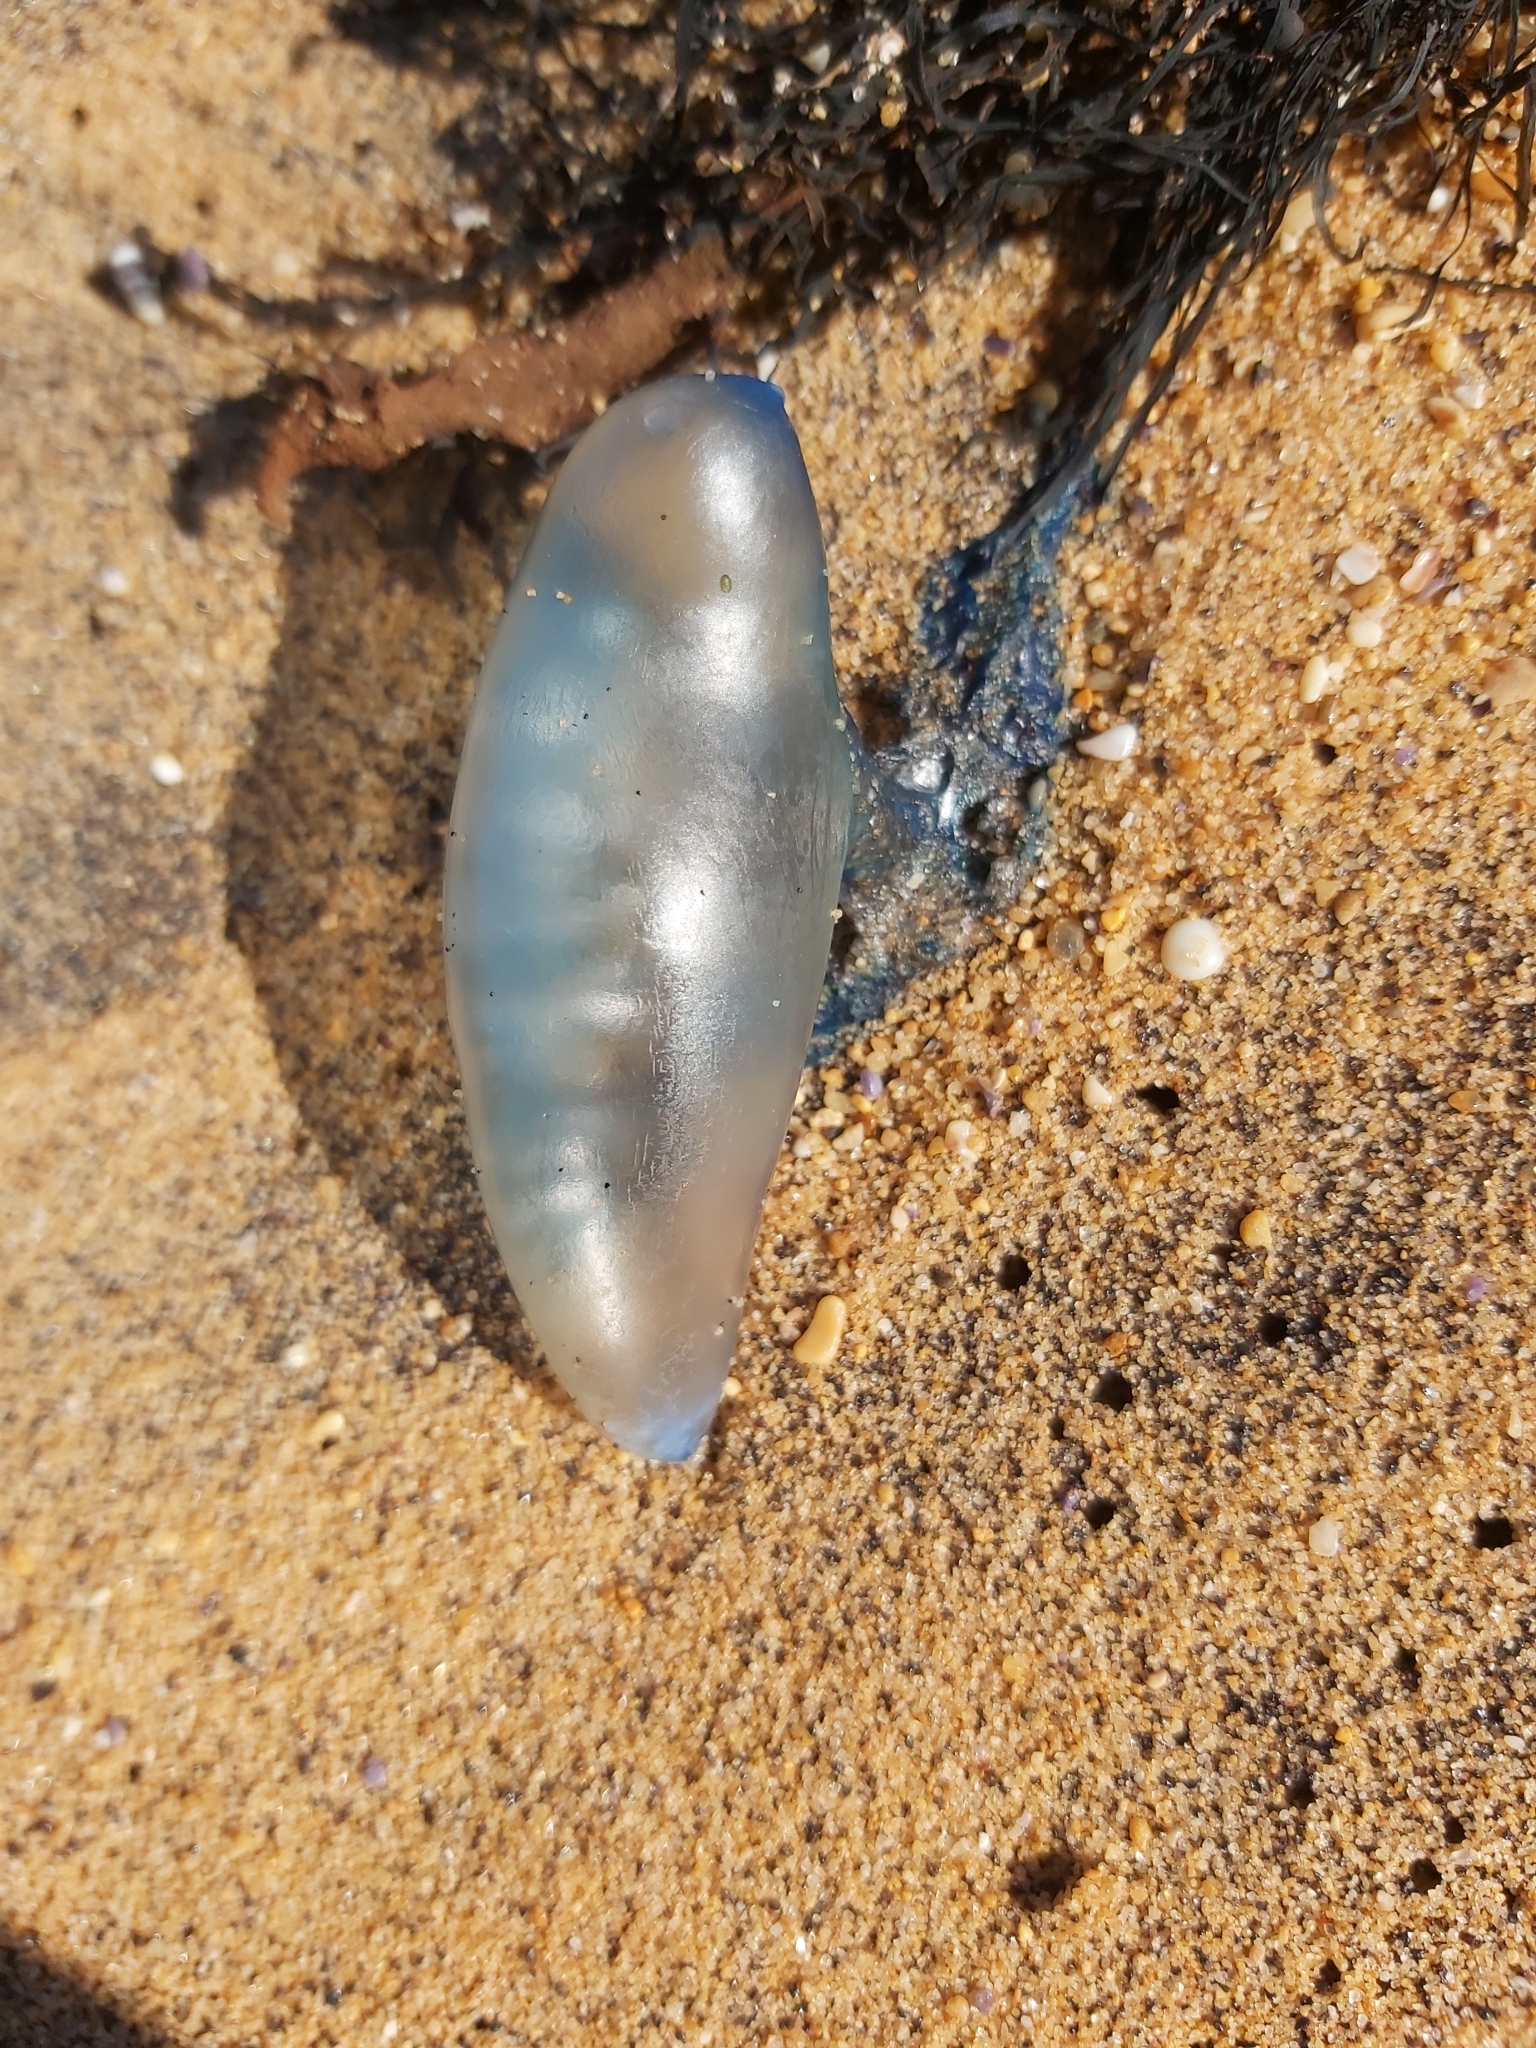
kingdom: Animalia
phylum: Cnidaria
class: Hydrozoa
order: Siphonophorae
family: Physaliidae
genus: Physalia
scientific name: Physalia physalis
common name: Portuguese man-of-war
